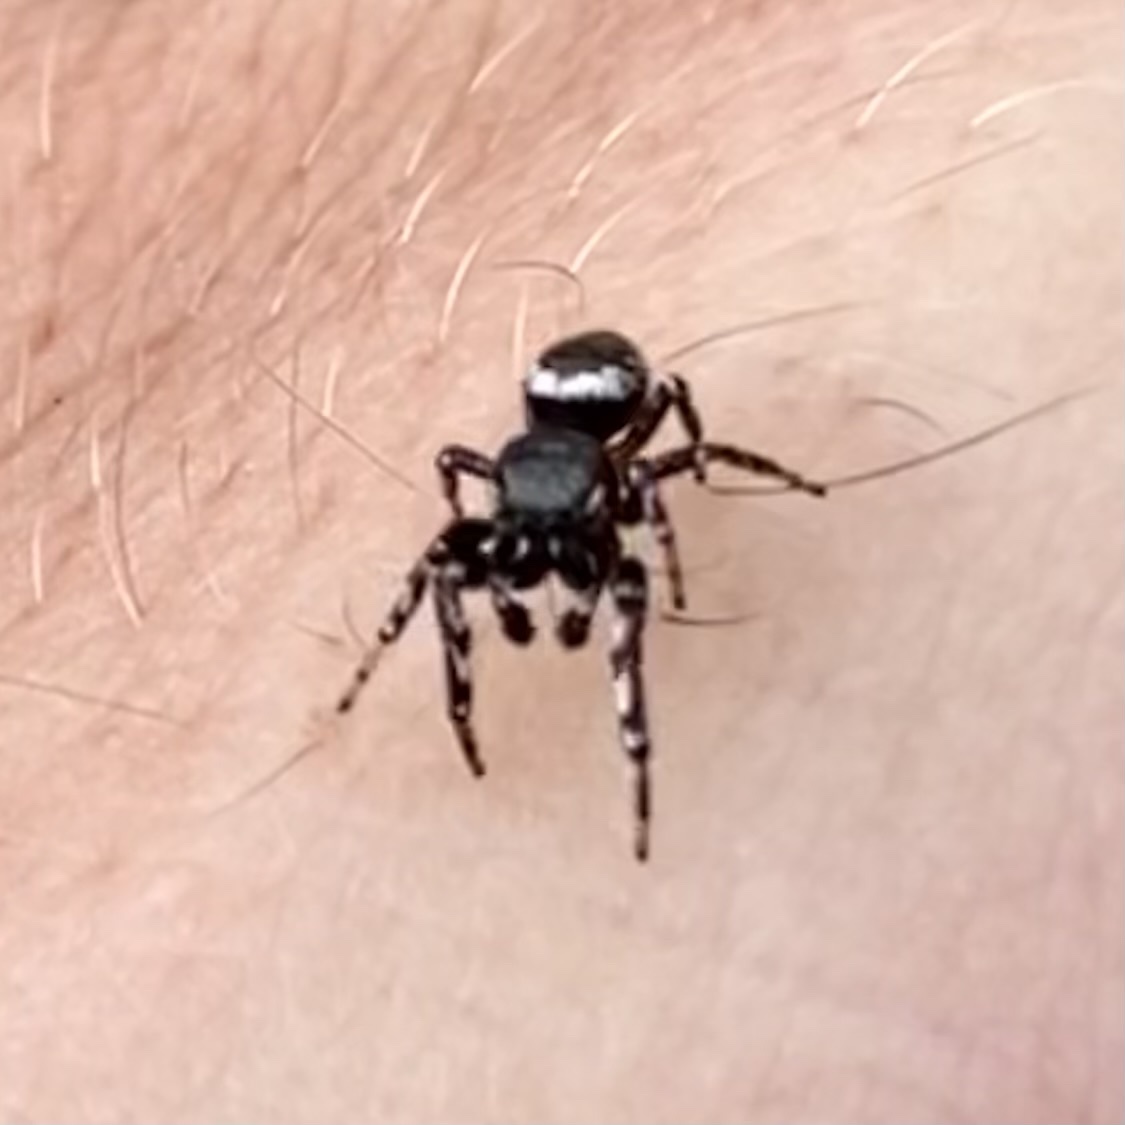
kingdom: Animalia
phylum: Arthropoda
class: Arachnida
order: Araneae
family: Salticidae
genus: Pelegrina
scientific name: Pelegrina aeneola
